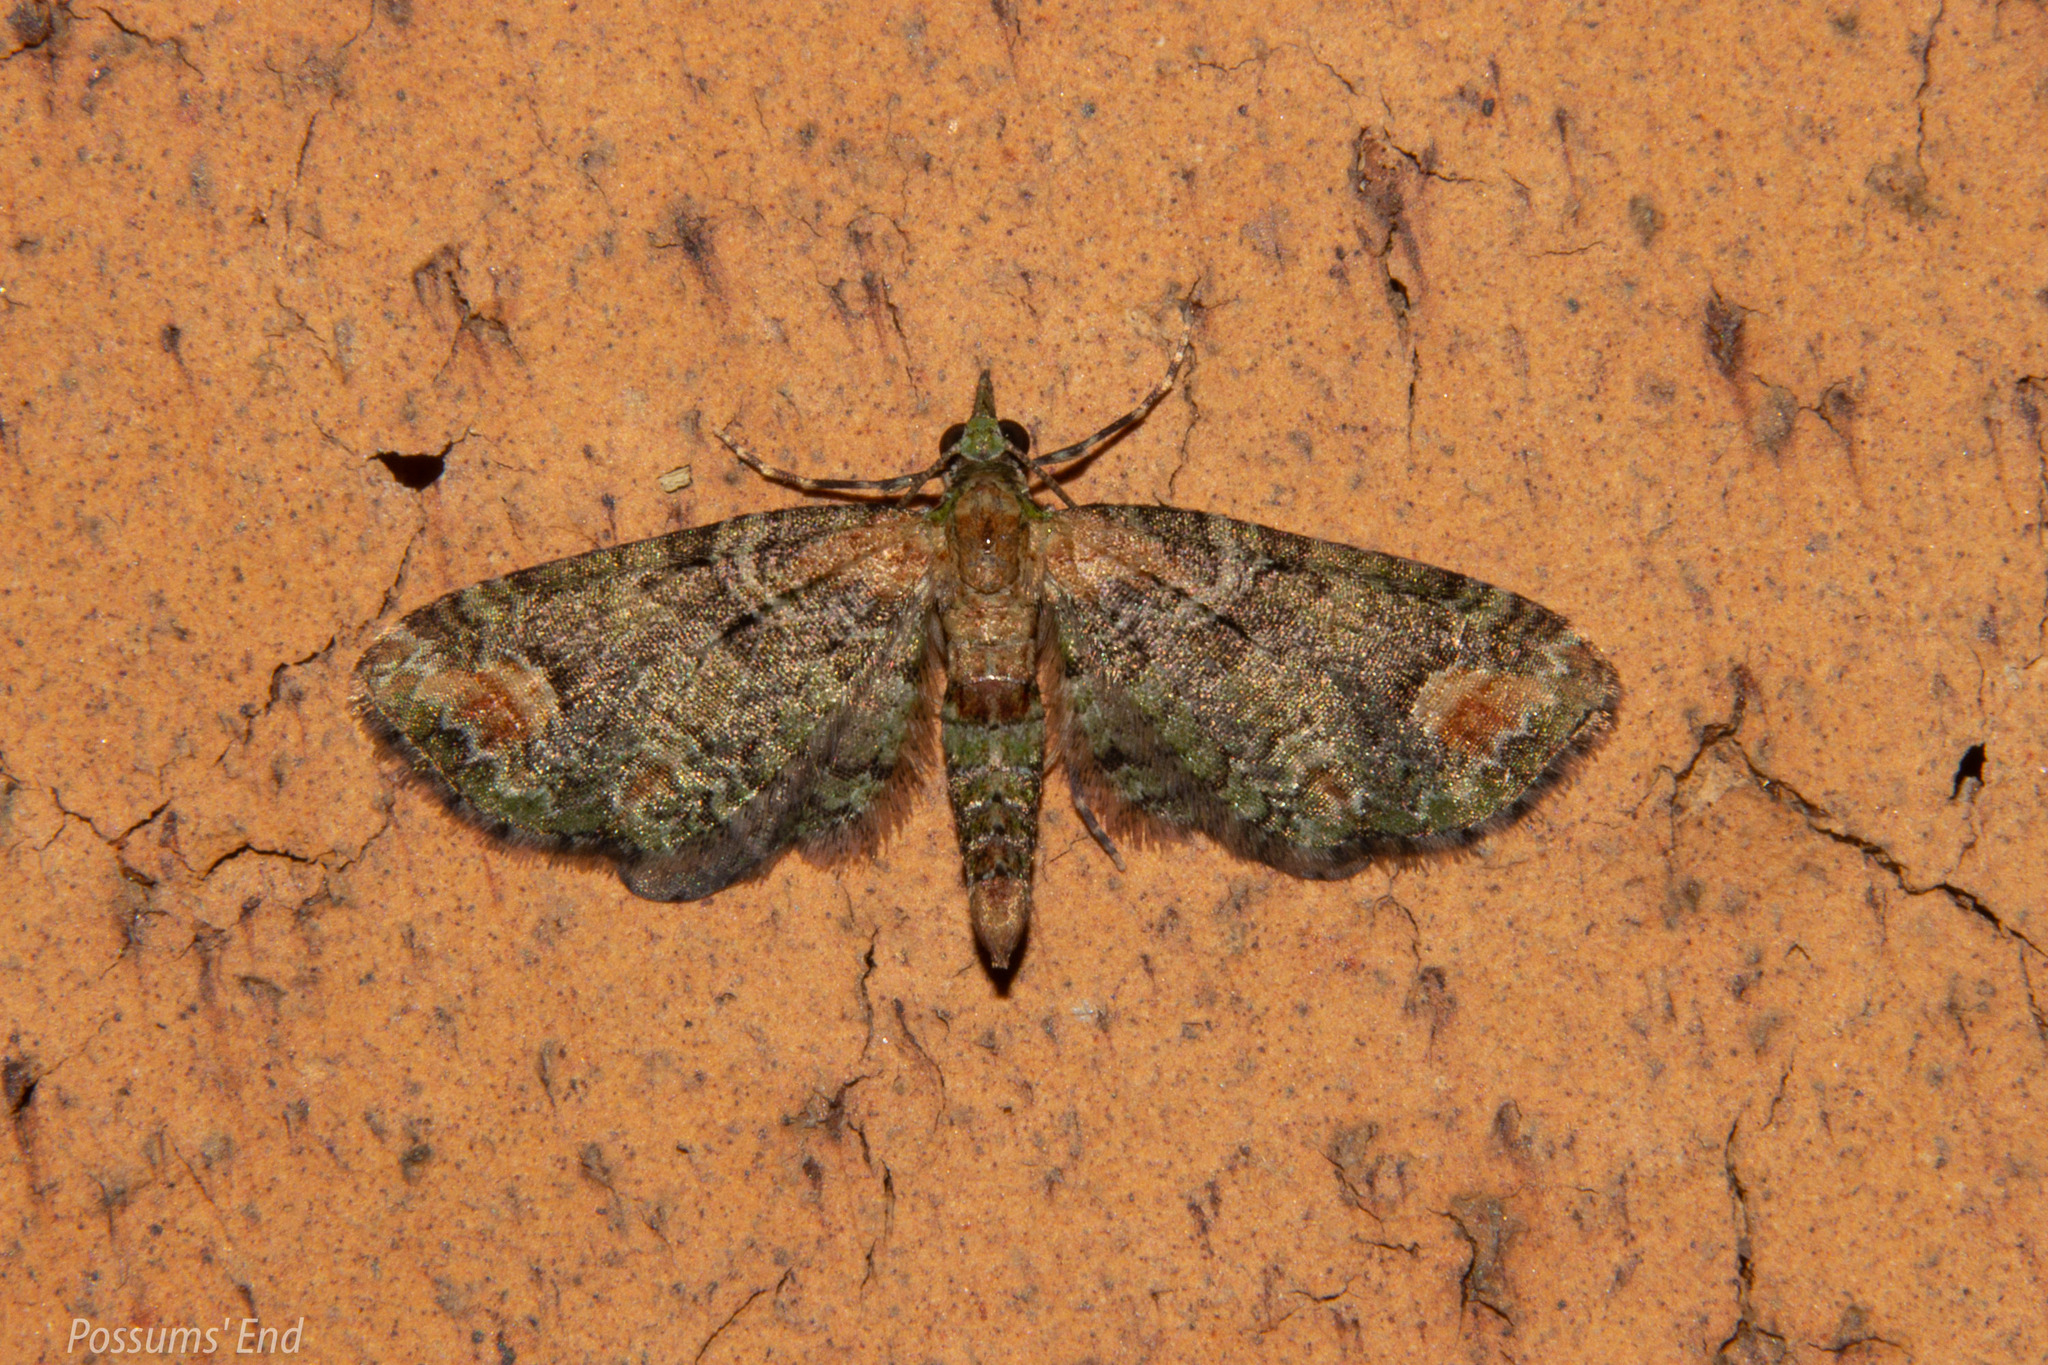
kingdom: Animalia
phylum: Arthropoda
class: Insecta
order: Lepidoptera
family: Geometridae
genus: Idaea
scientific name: Idaea mutanda
